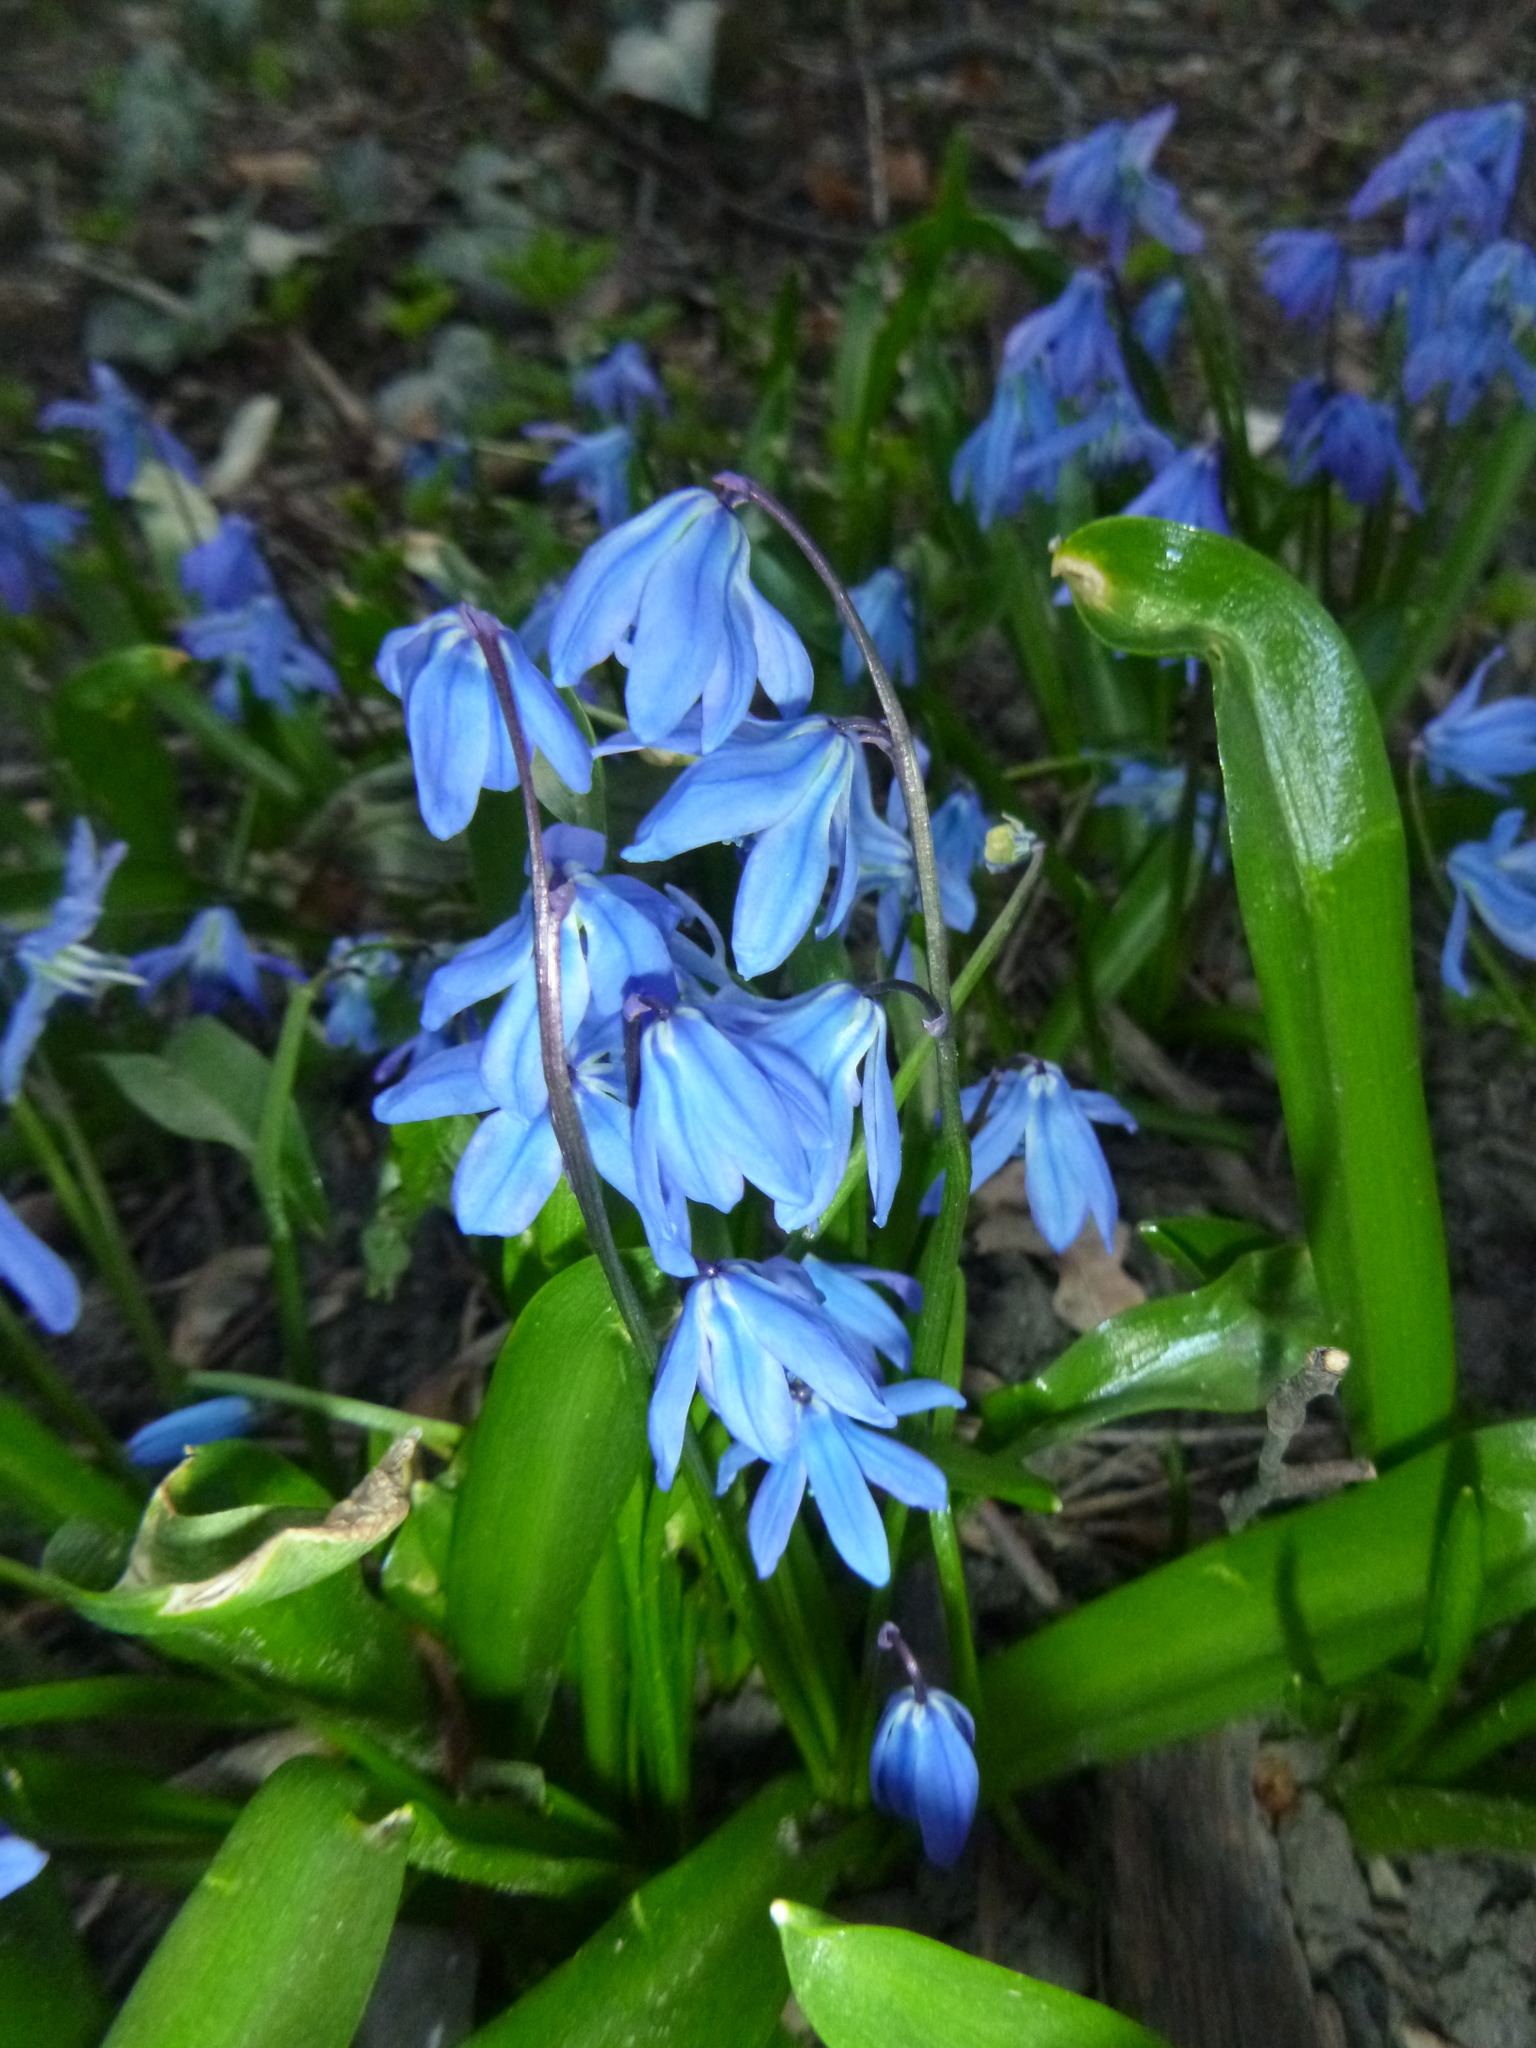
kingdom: Plantae
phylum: Tracheophyta
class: Liliopsida
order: Asparagales
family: Asparagaceae
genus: Scilla
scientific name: Scilla siberica
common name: Siberian squill
